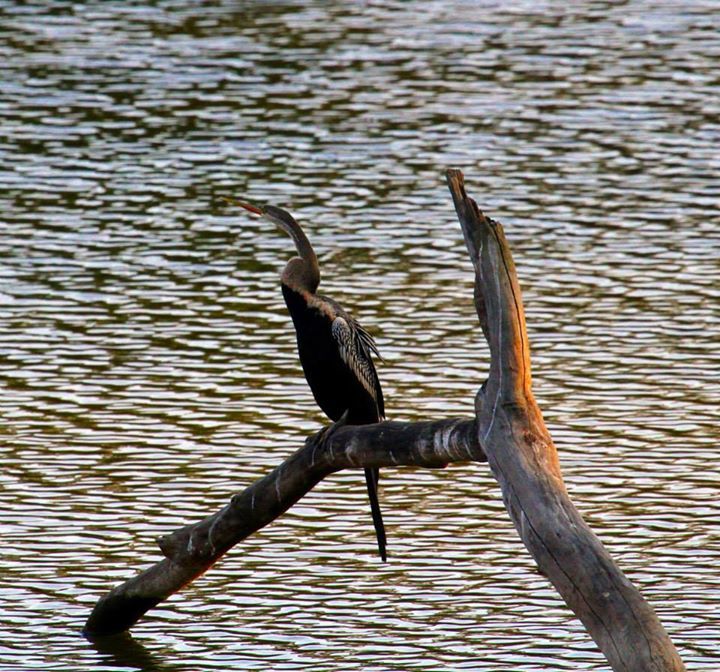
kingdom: Animalia
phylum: Chordata
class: Aves
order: Suliformes
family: Anhingidae
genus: Anhinga
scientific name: Anhinga melanogaster
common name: Oriental darter
